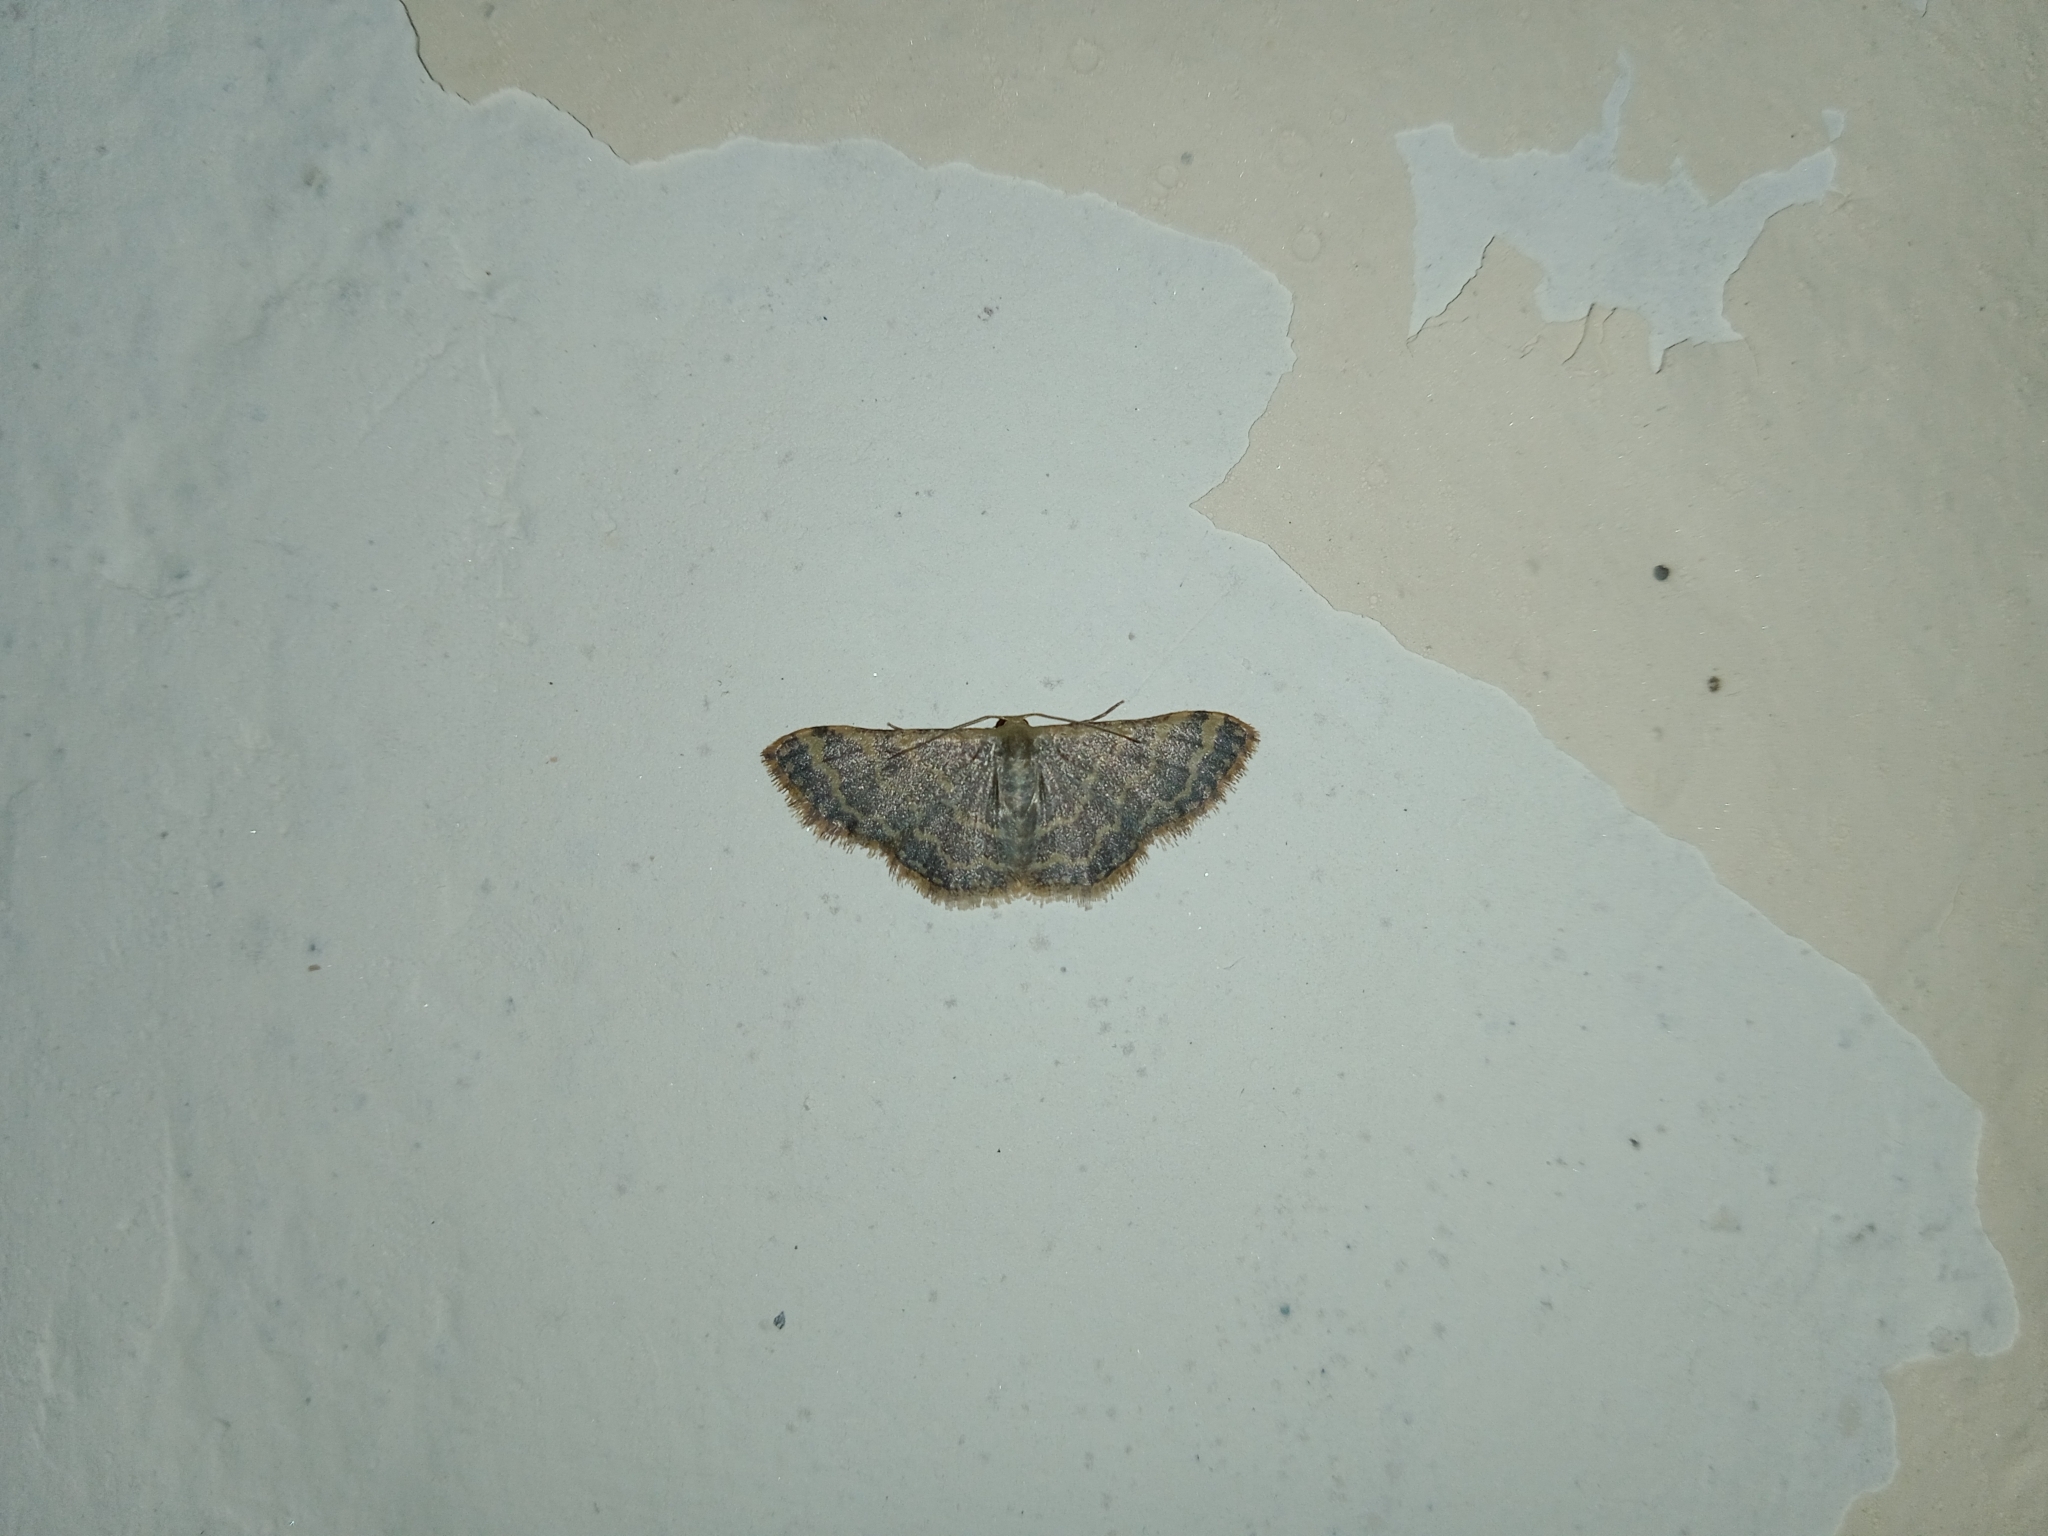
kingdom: Animalia
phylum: Arthropoda
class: Insecta
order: Lepidoptera
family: Geometridae
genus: Idaea
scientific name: Idaea costiguttata
